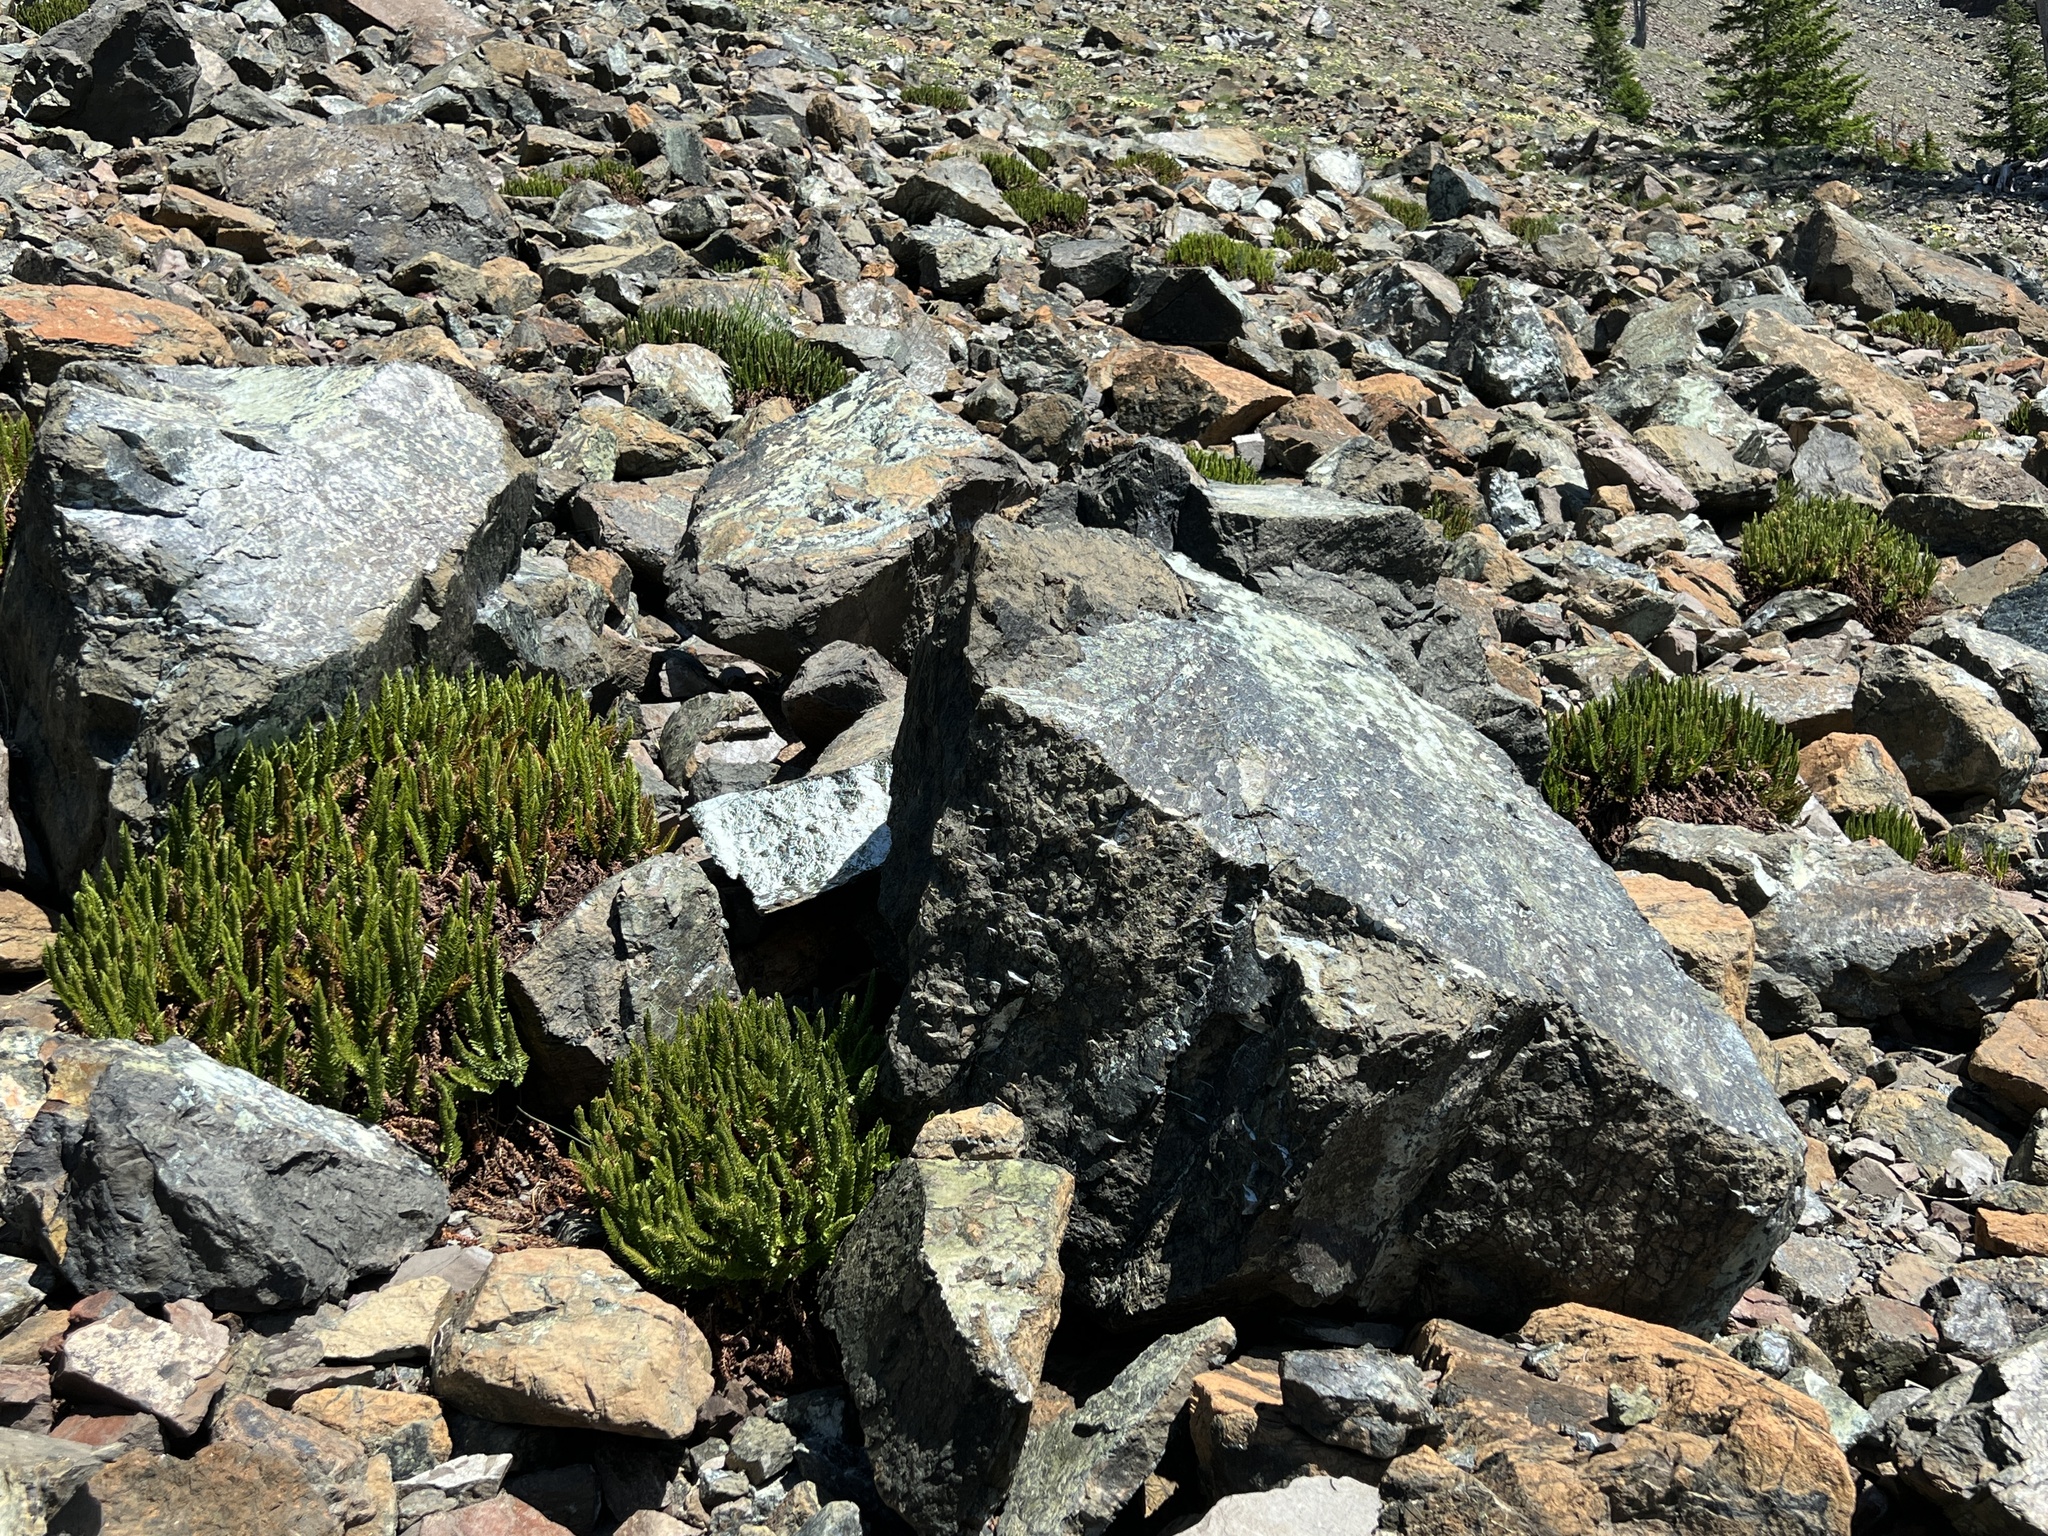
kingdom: Plantae
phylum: Tracheophyta
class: Polypodiopsida
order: Polypodiales
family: Dryopteridaceae
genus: Polystichum
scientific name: Polystichum lemmonii
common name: Lemmon's holly fern
